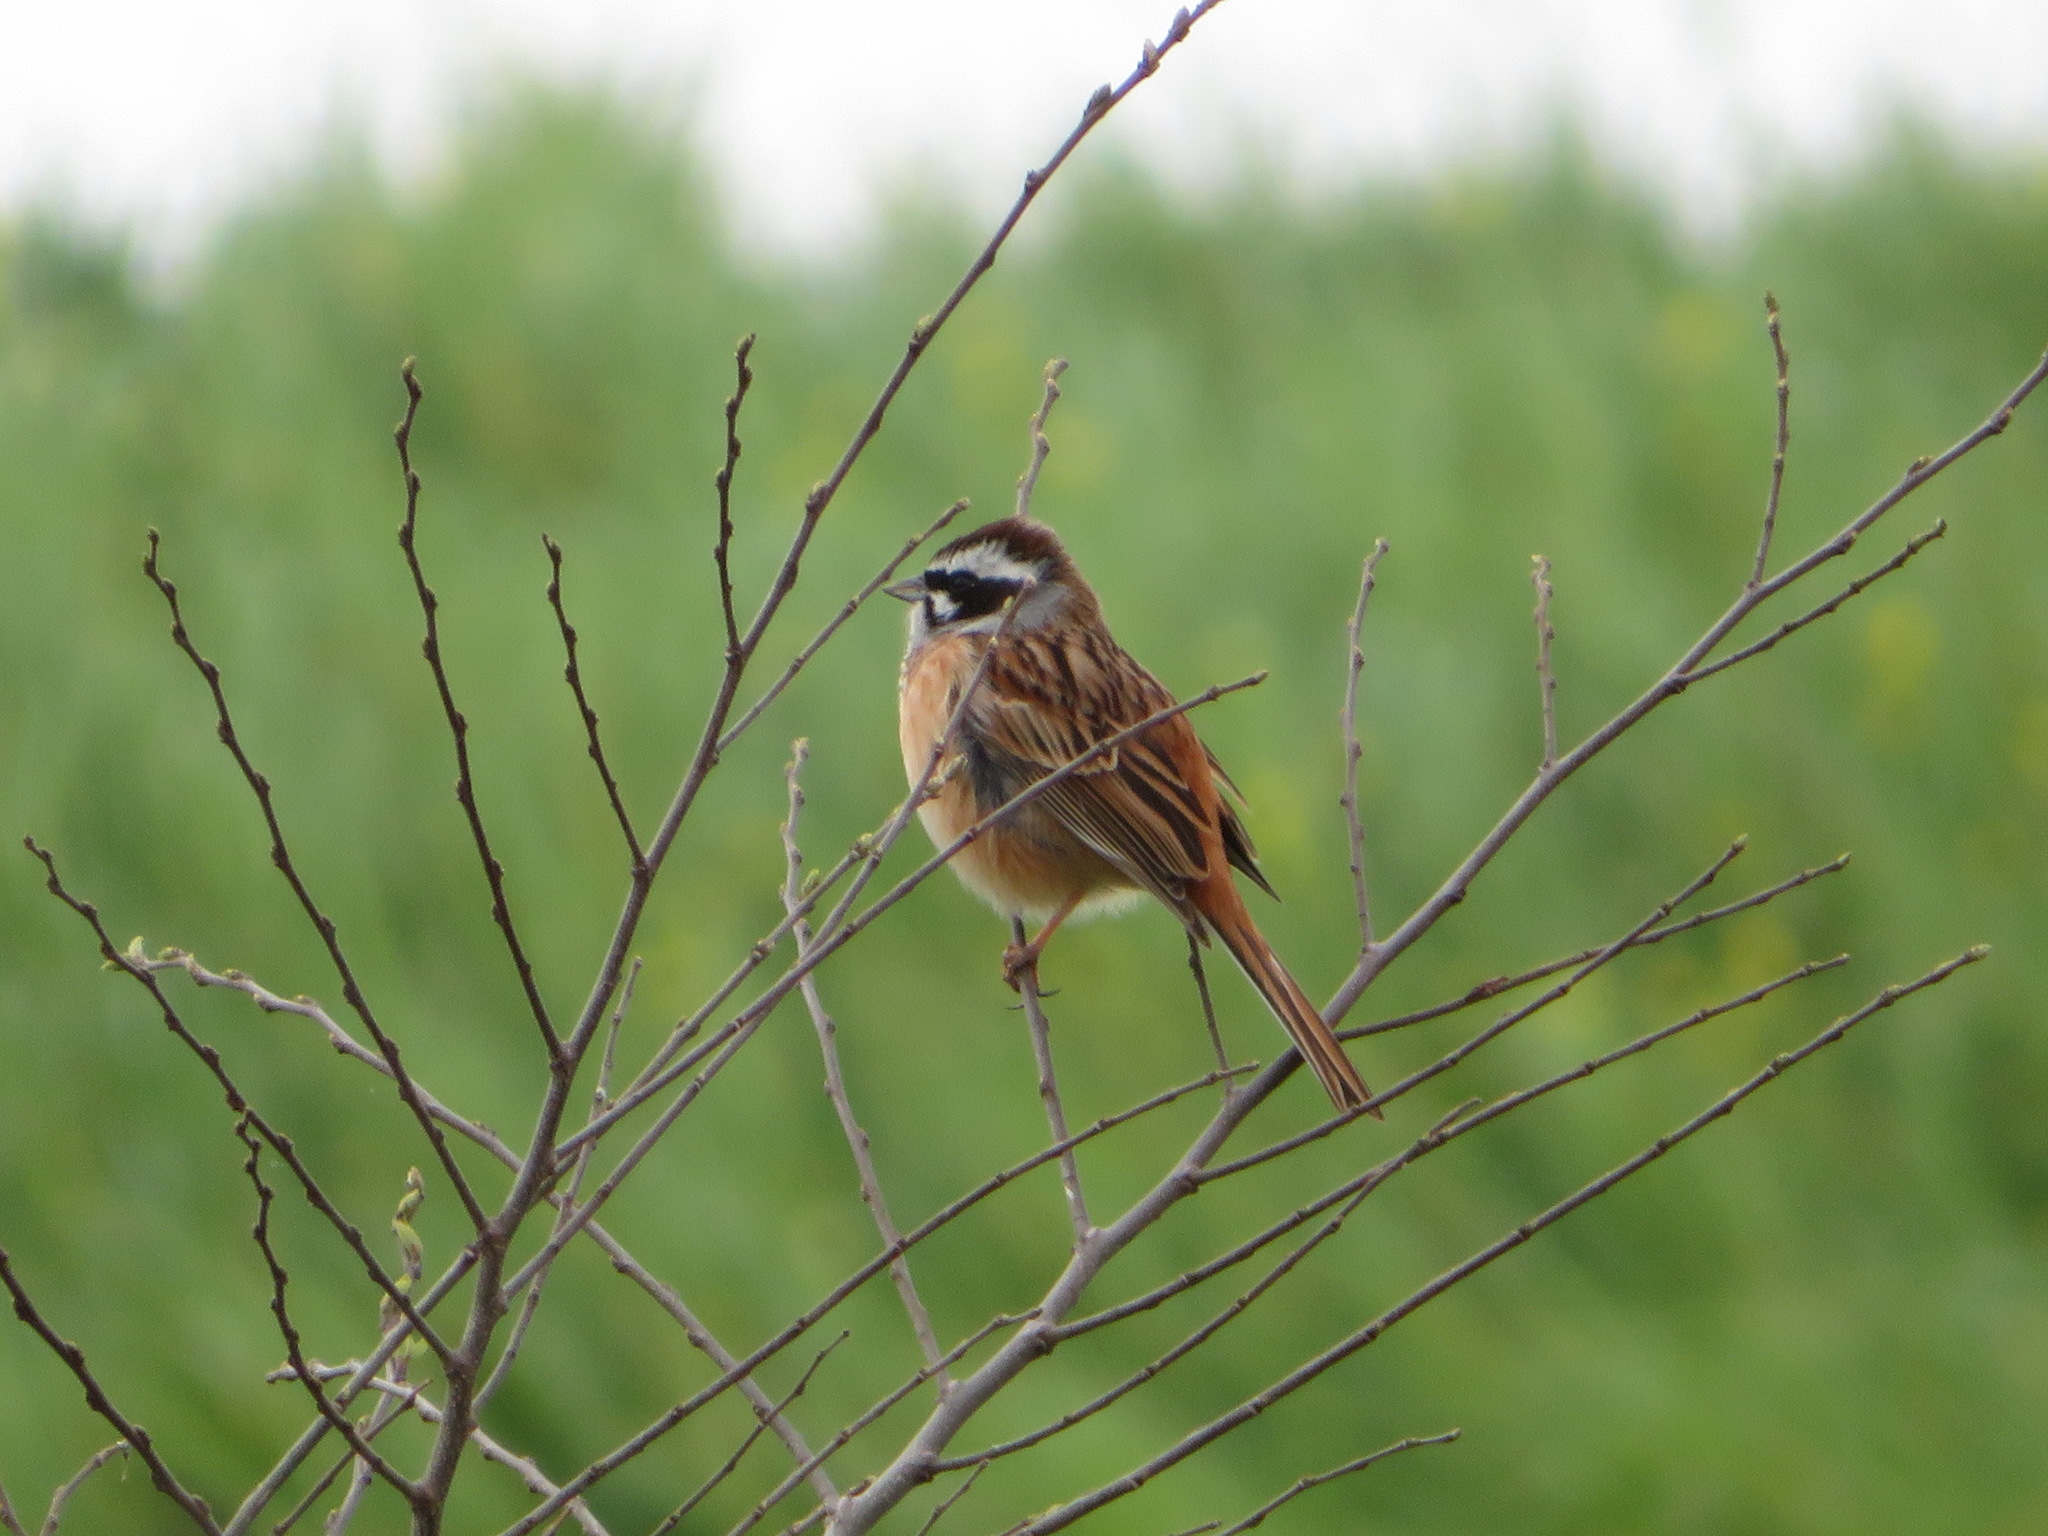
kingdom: Animalia
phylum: Chordata
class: Aves
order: Passeriformes
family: Emberizidae
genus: Emberiza
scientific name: Emberiza cioides
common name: Meadow bunting
